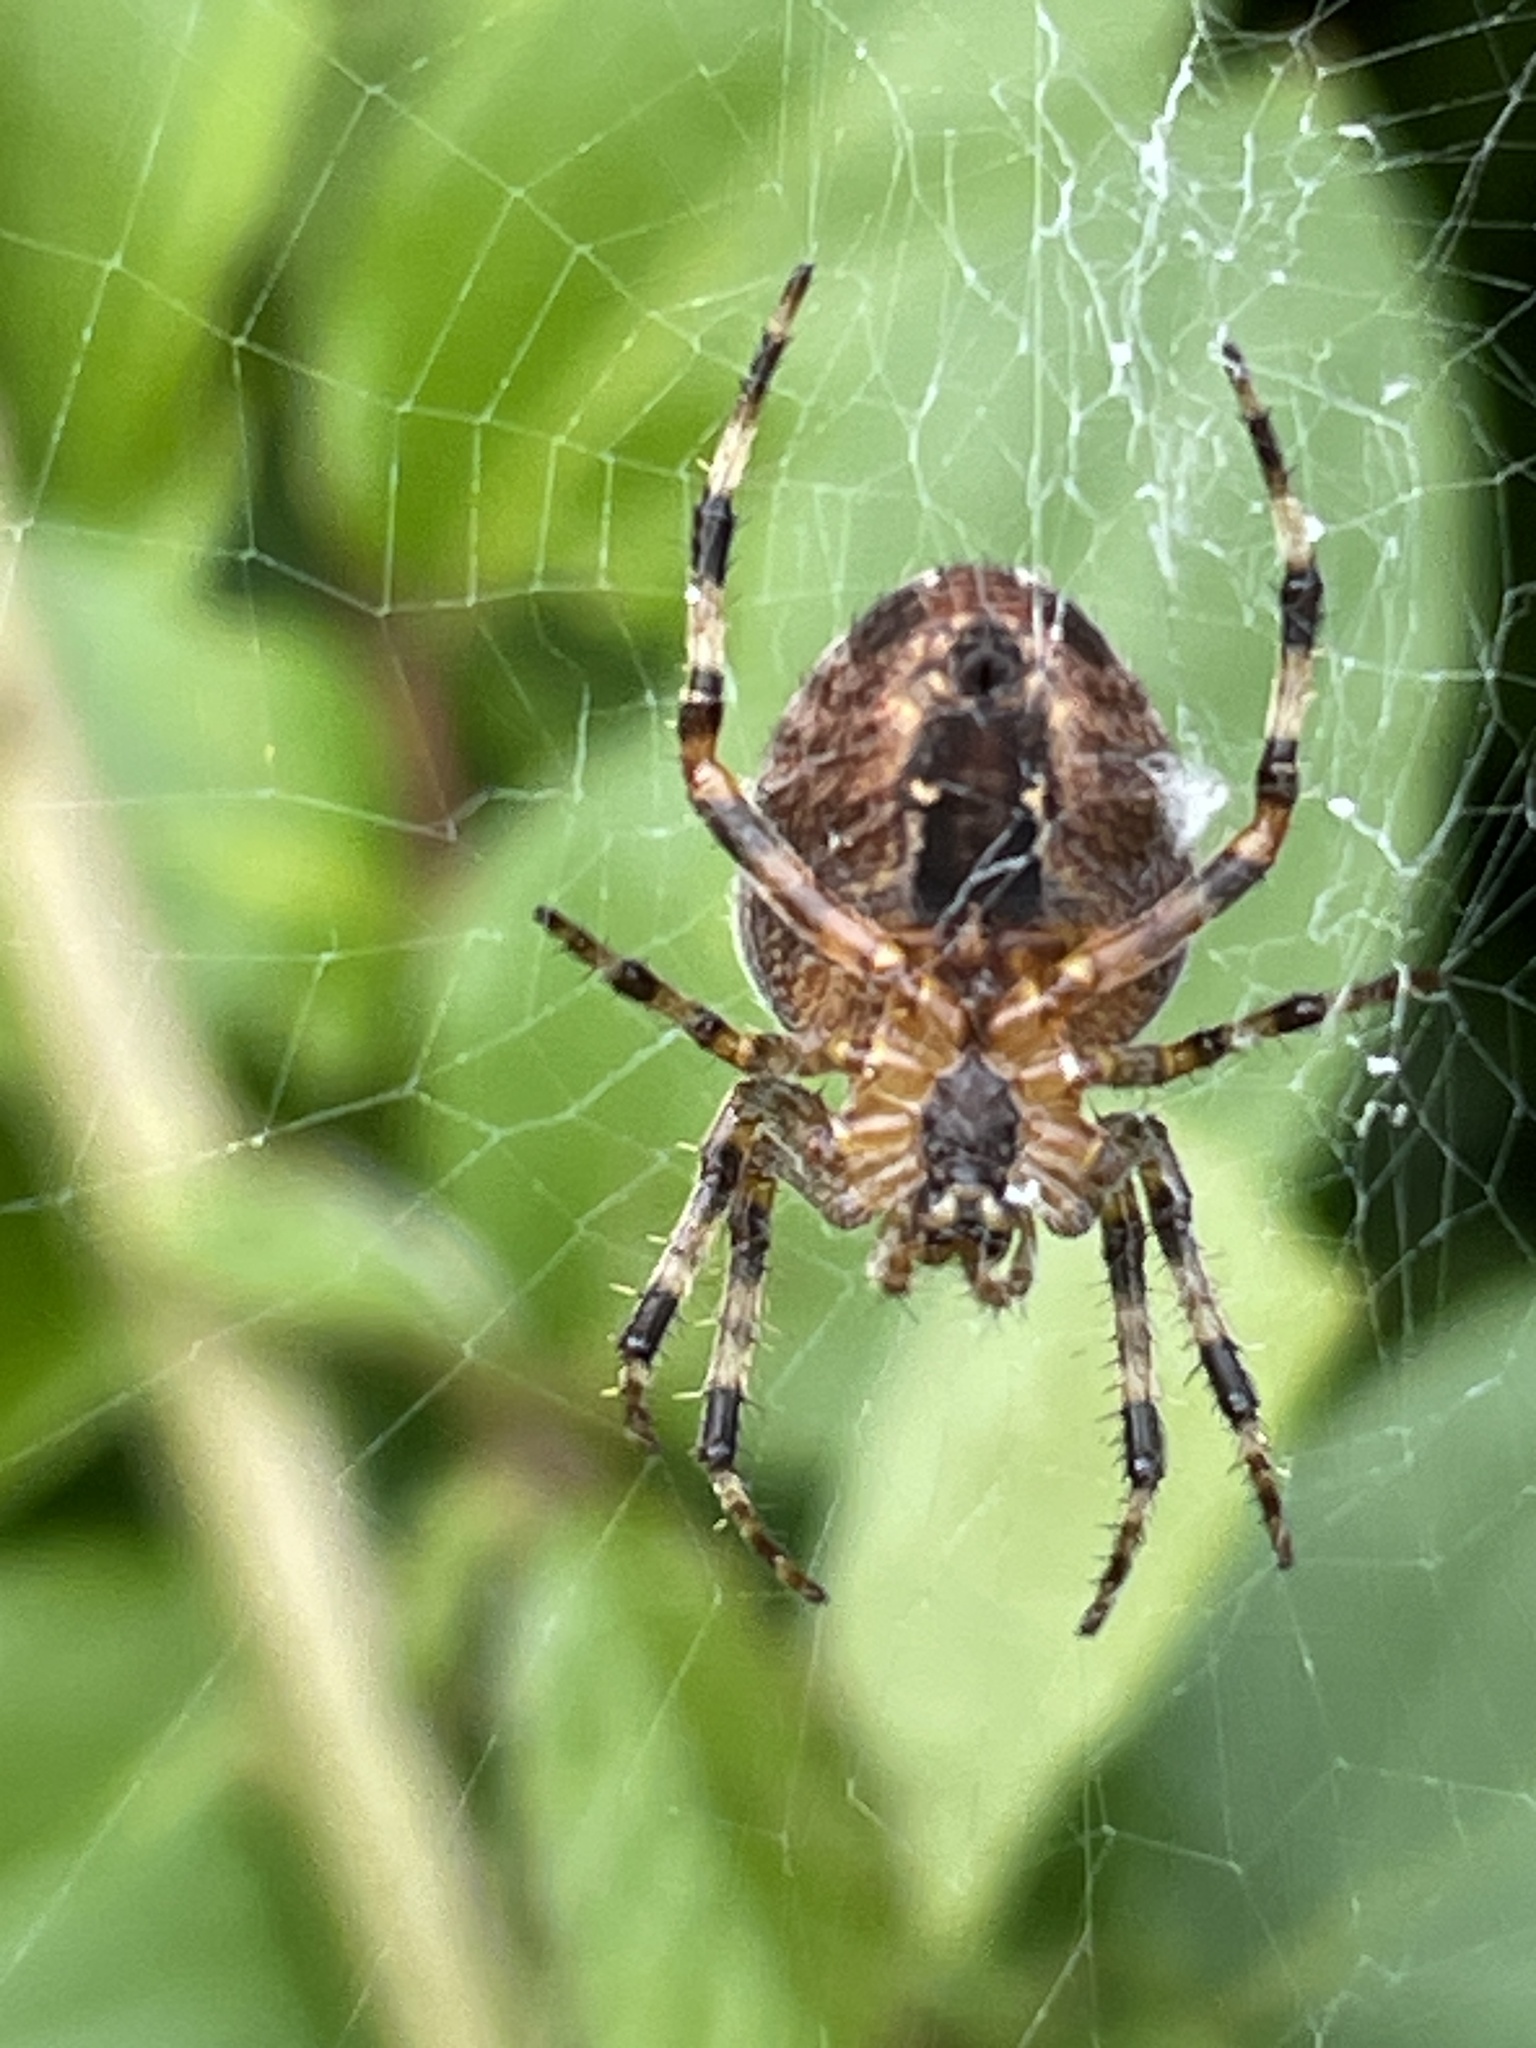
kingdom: Animalia
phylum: Arthropoda
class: Arachnida
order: Araneae
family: Araneidae
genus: Araneus
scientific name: Araneus diadematus
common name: Cross orbweaver
